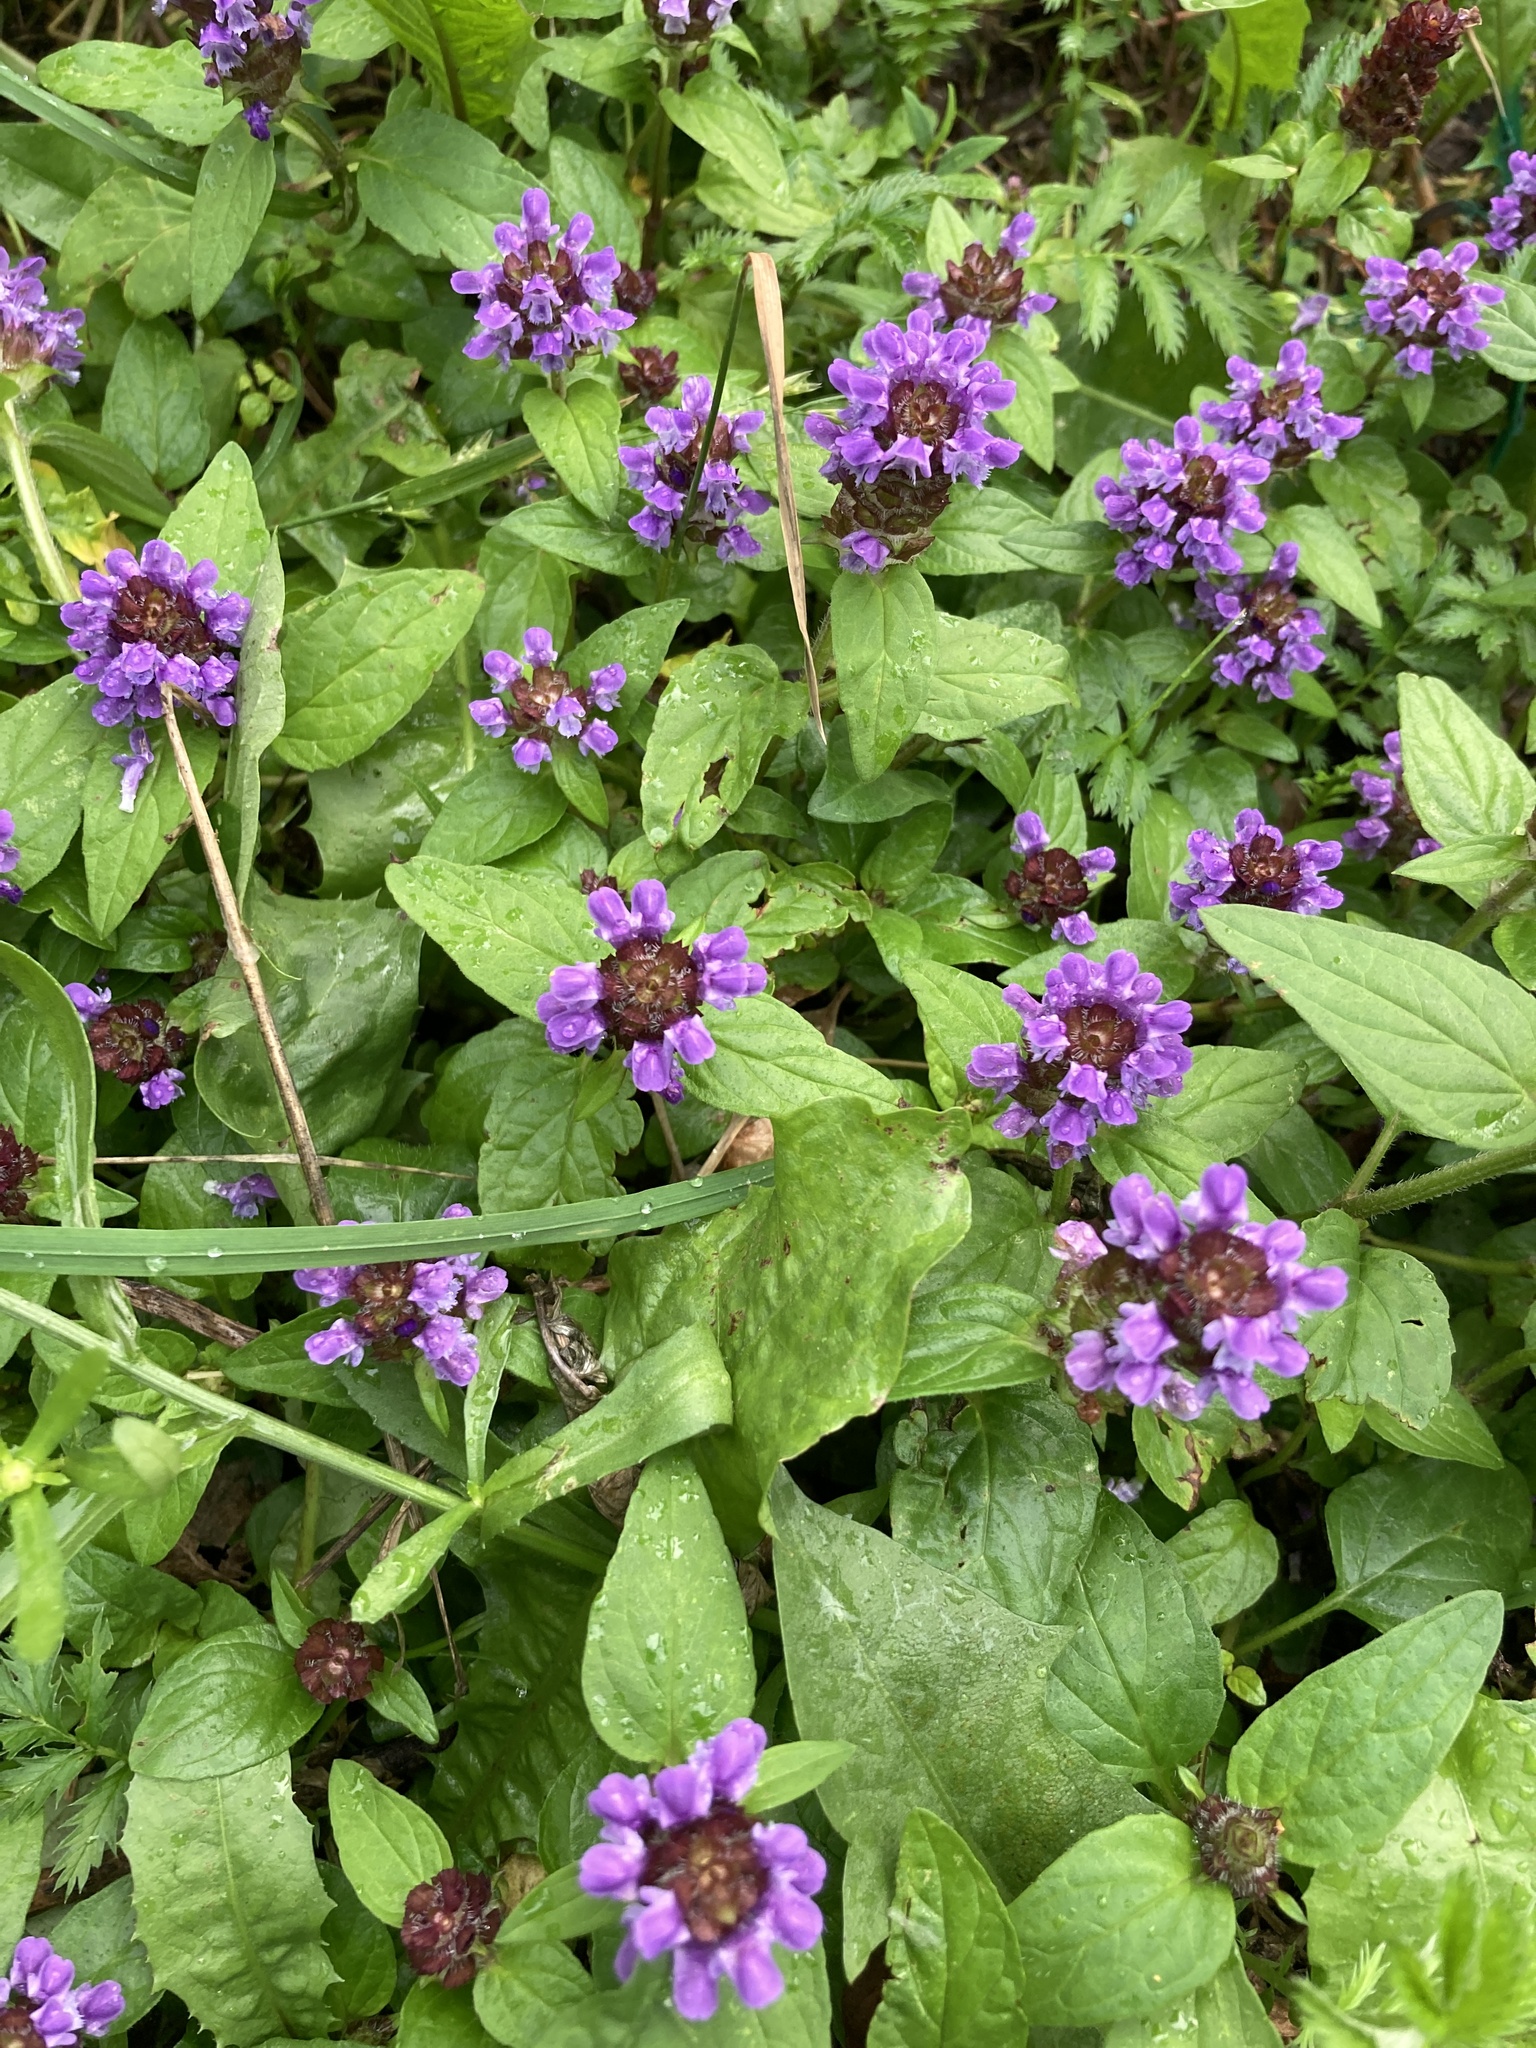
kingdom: Plantae
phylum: Tracheophyta
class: Magnoliopsida
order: Lamiales
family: Lamiaceae
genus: Prunella
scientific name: Prunella vulgaris
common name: Heal-all
